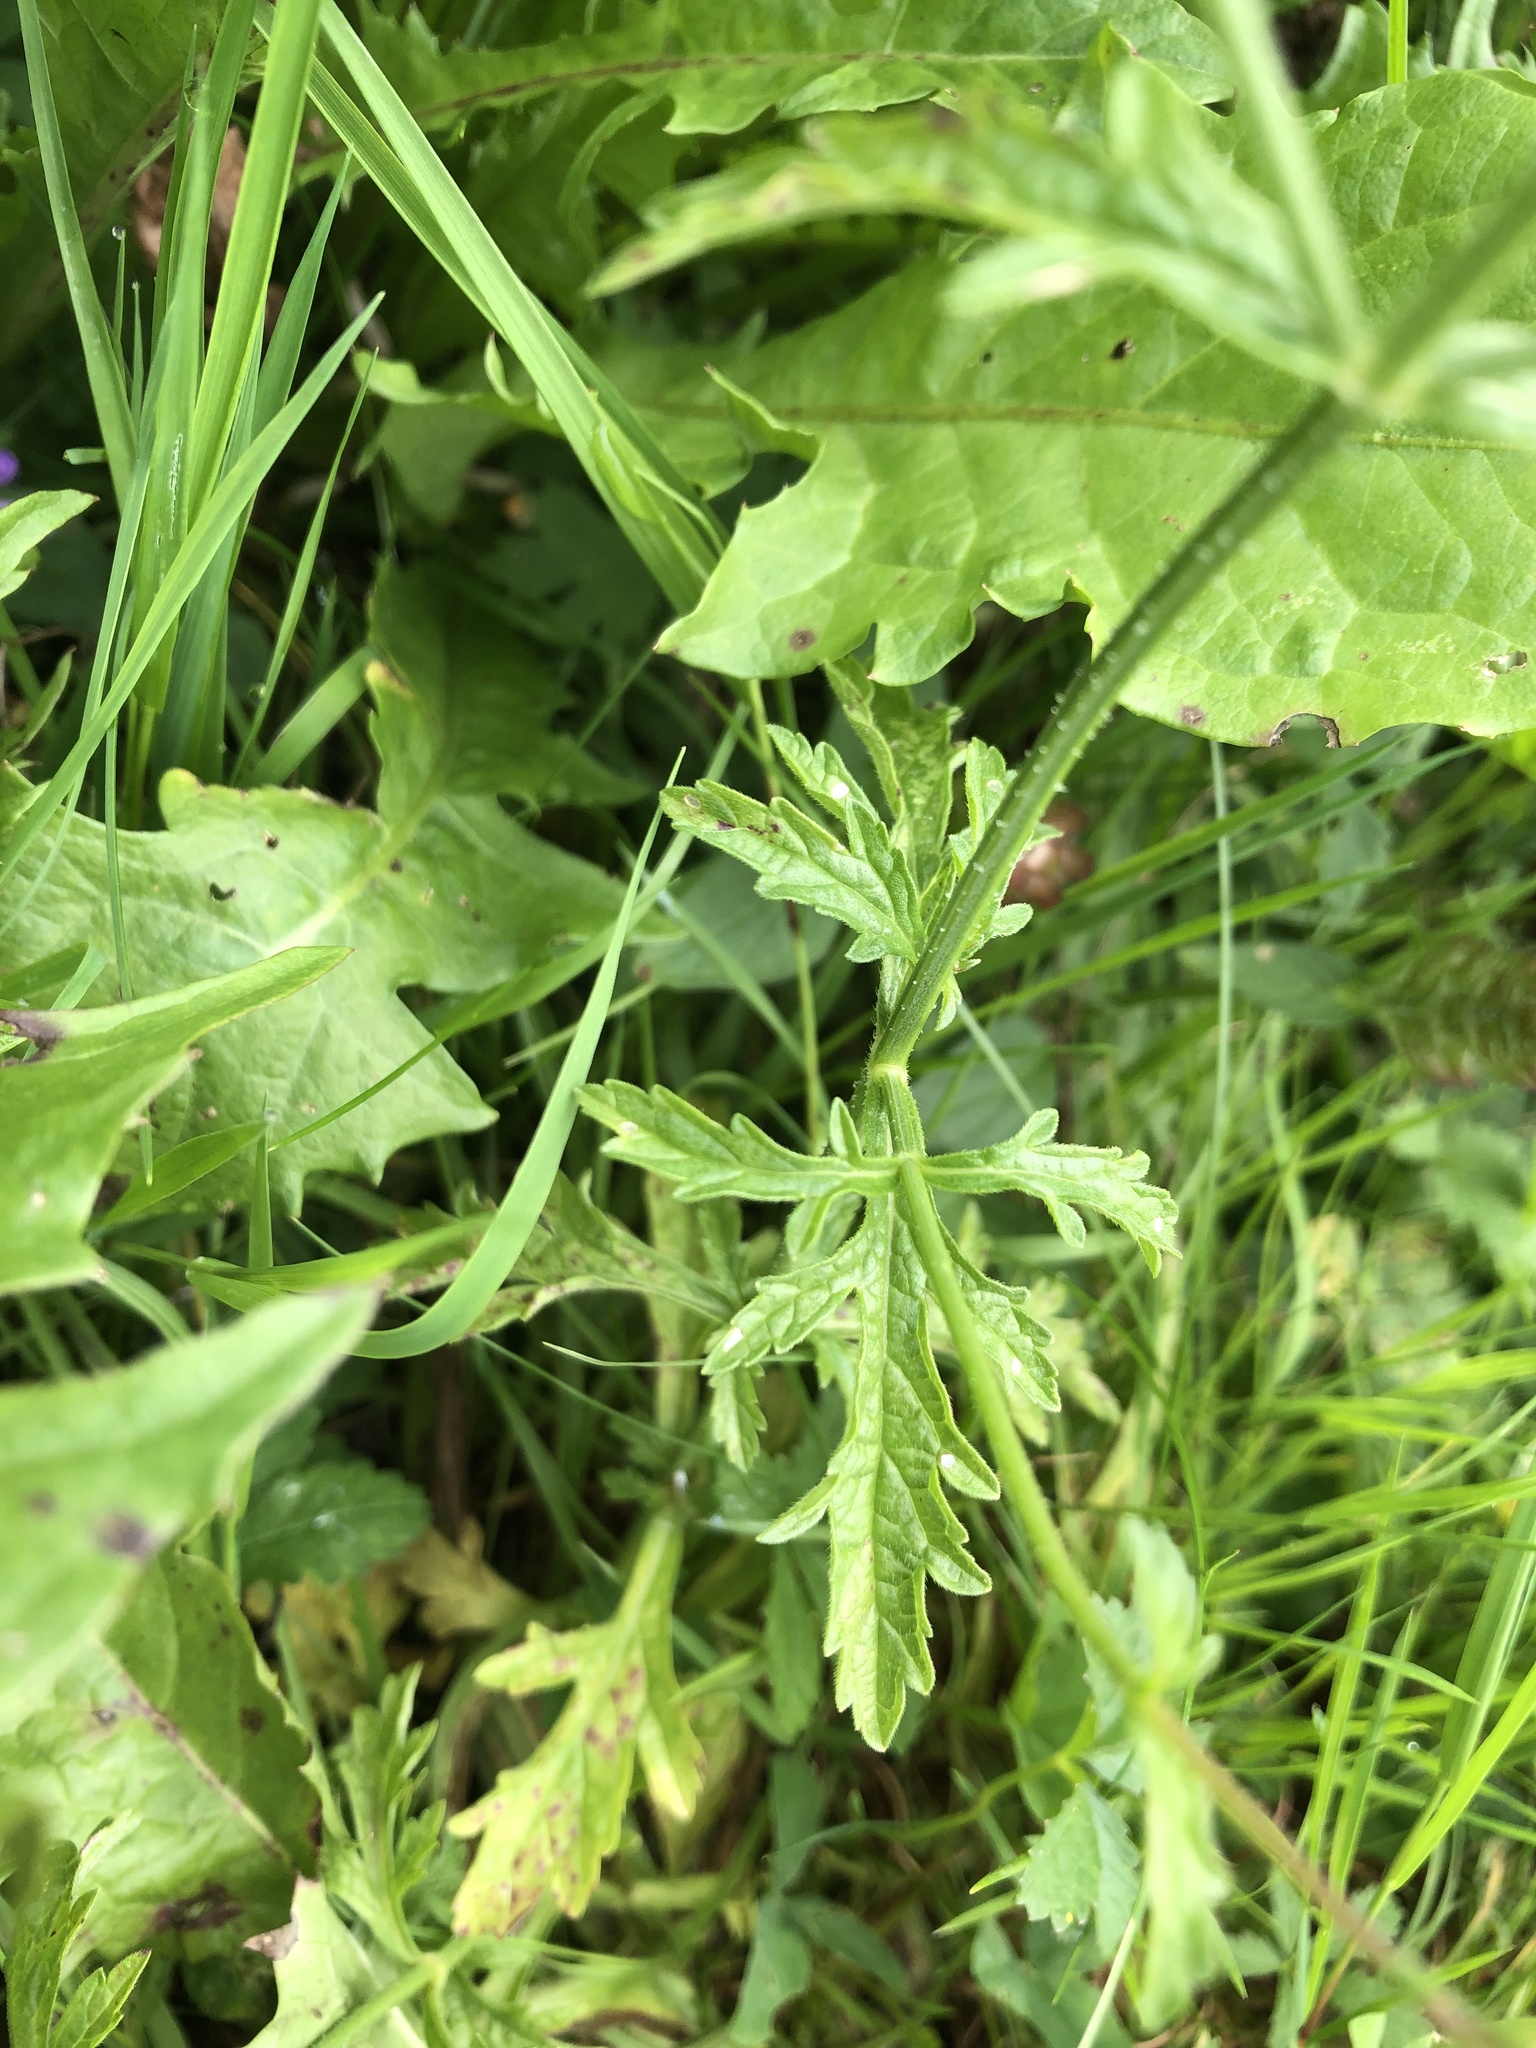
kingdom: Plantae
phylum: Tracheophyta
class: Magnoliopsida
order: Lamiales
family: Verbenaceae
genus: Verbena
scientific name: Verbena officinalis
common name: Vervain
